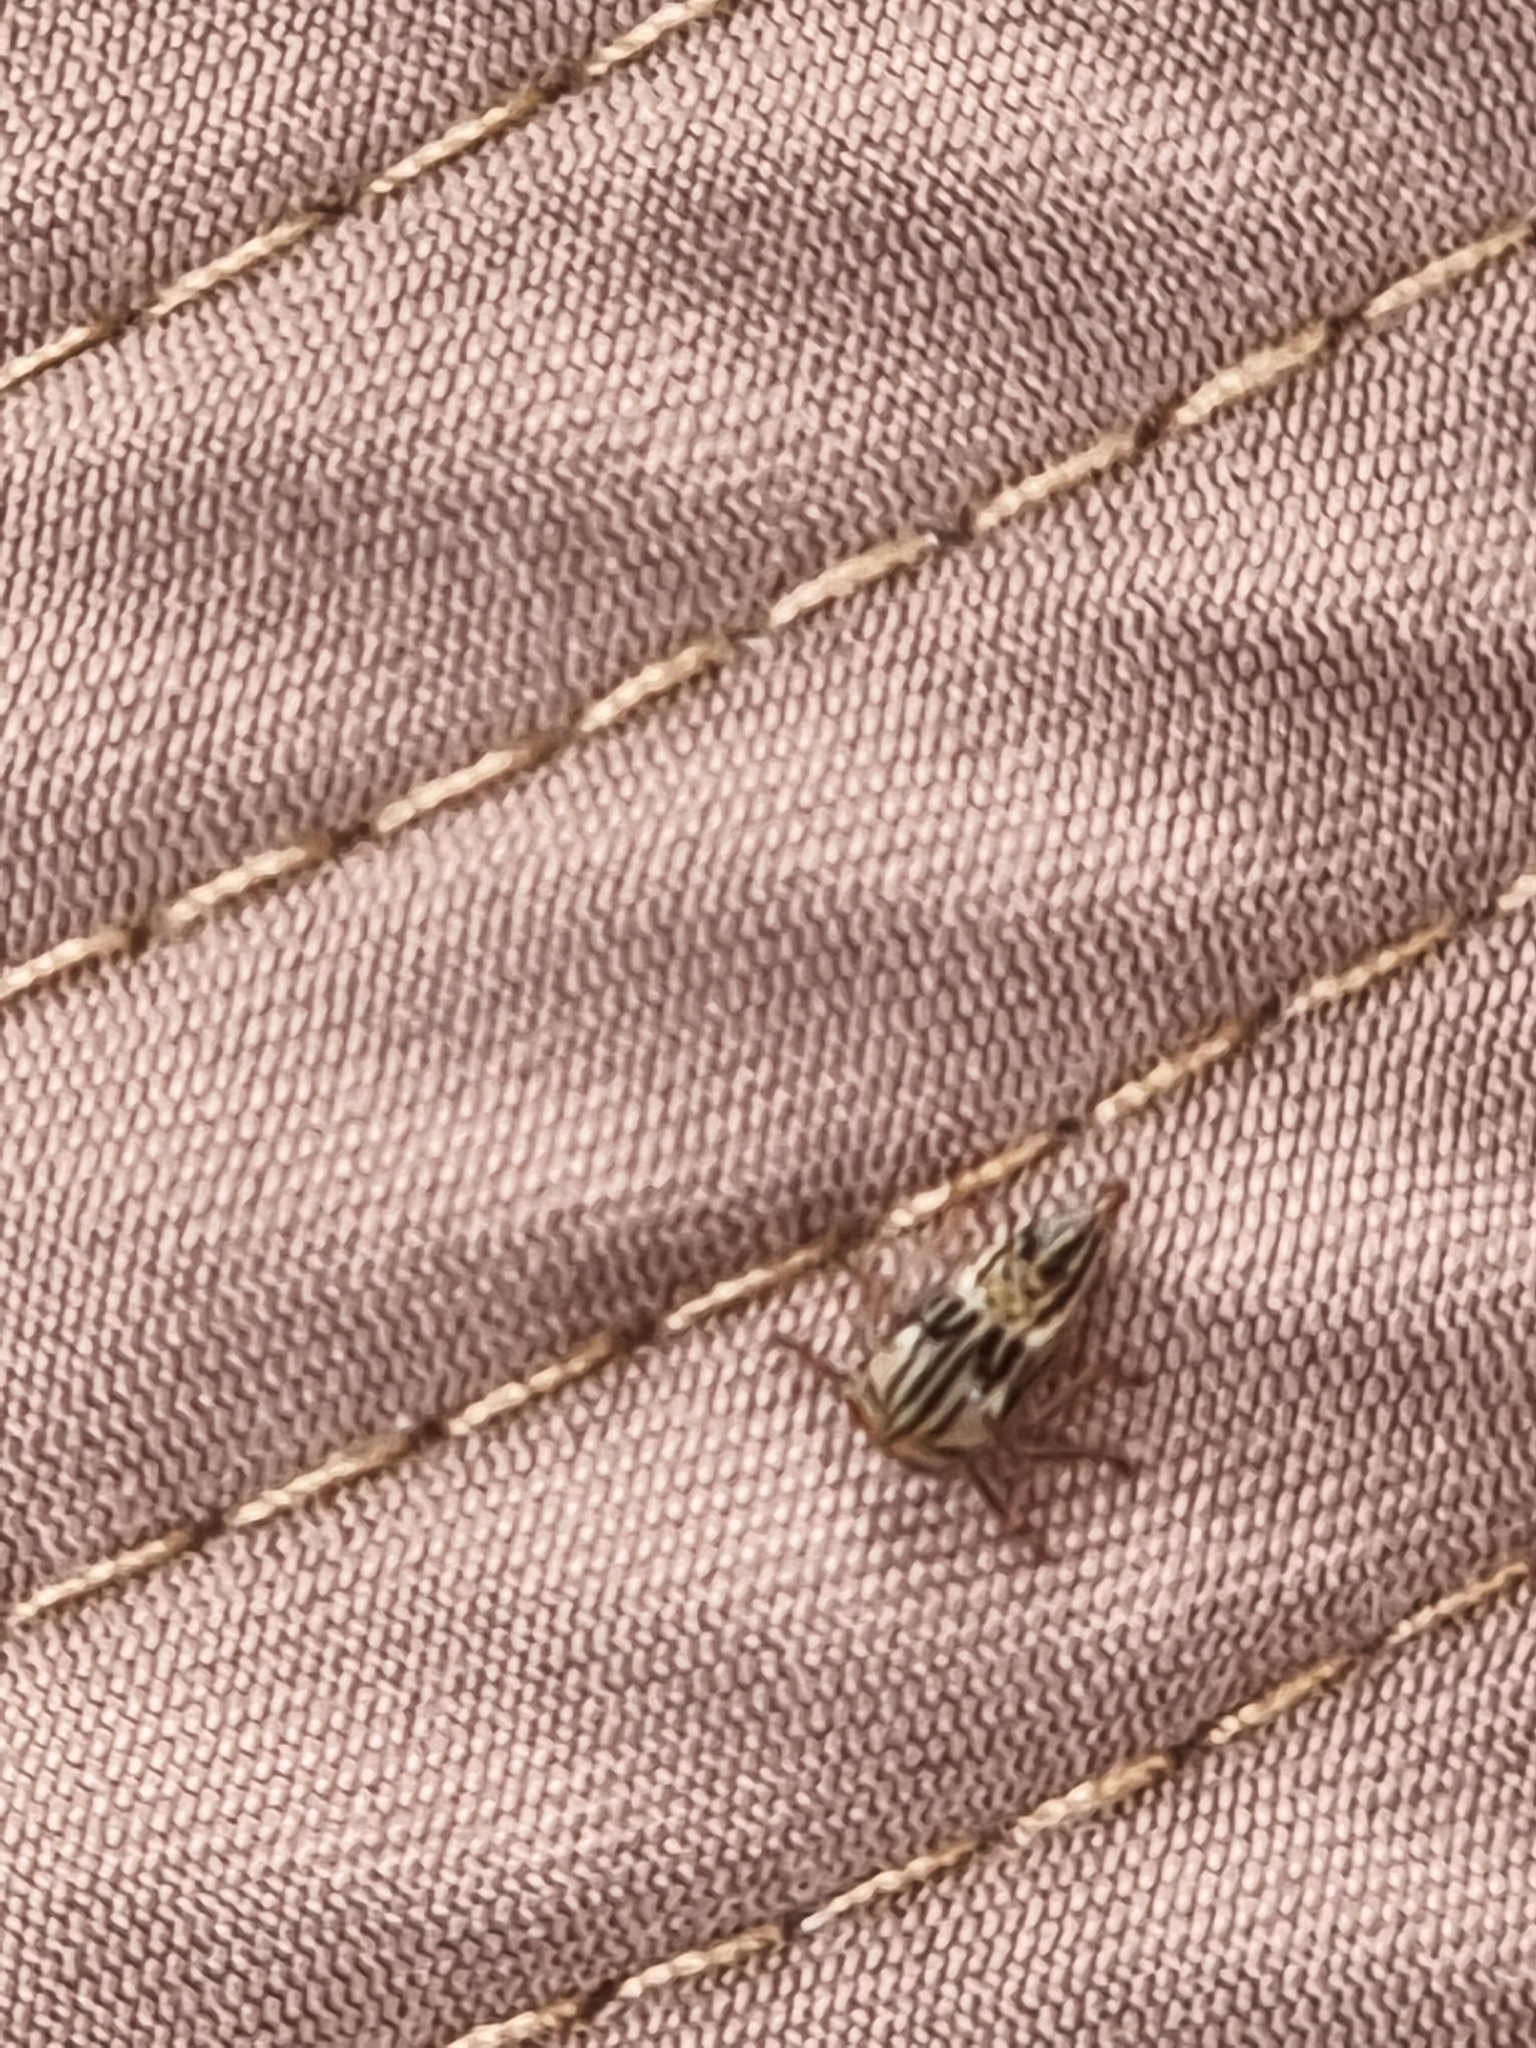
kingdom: Animalia
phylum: Arthropoda
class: Insecta
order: Hemiptera
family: Membracidae
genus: Aconophora
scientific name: Aconophora compressa
